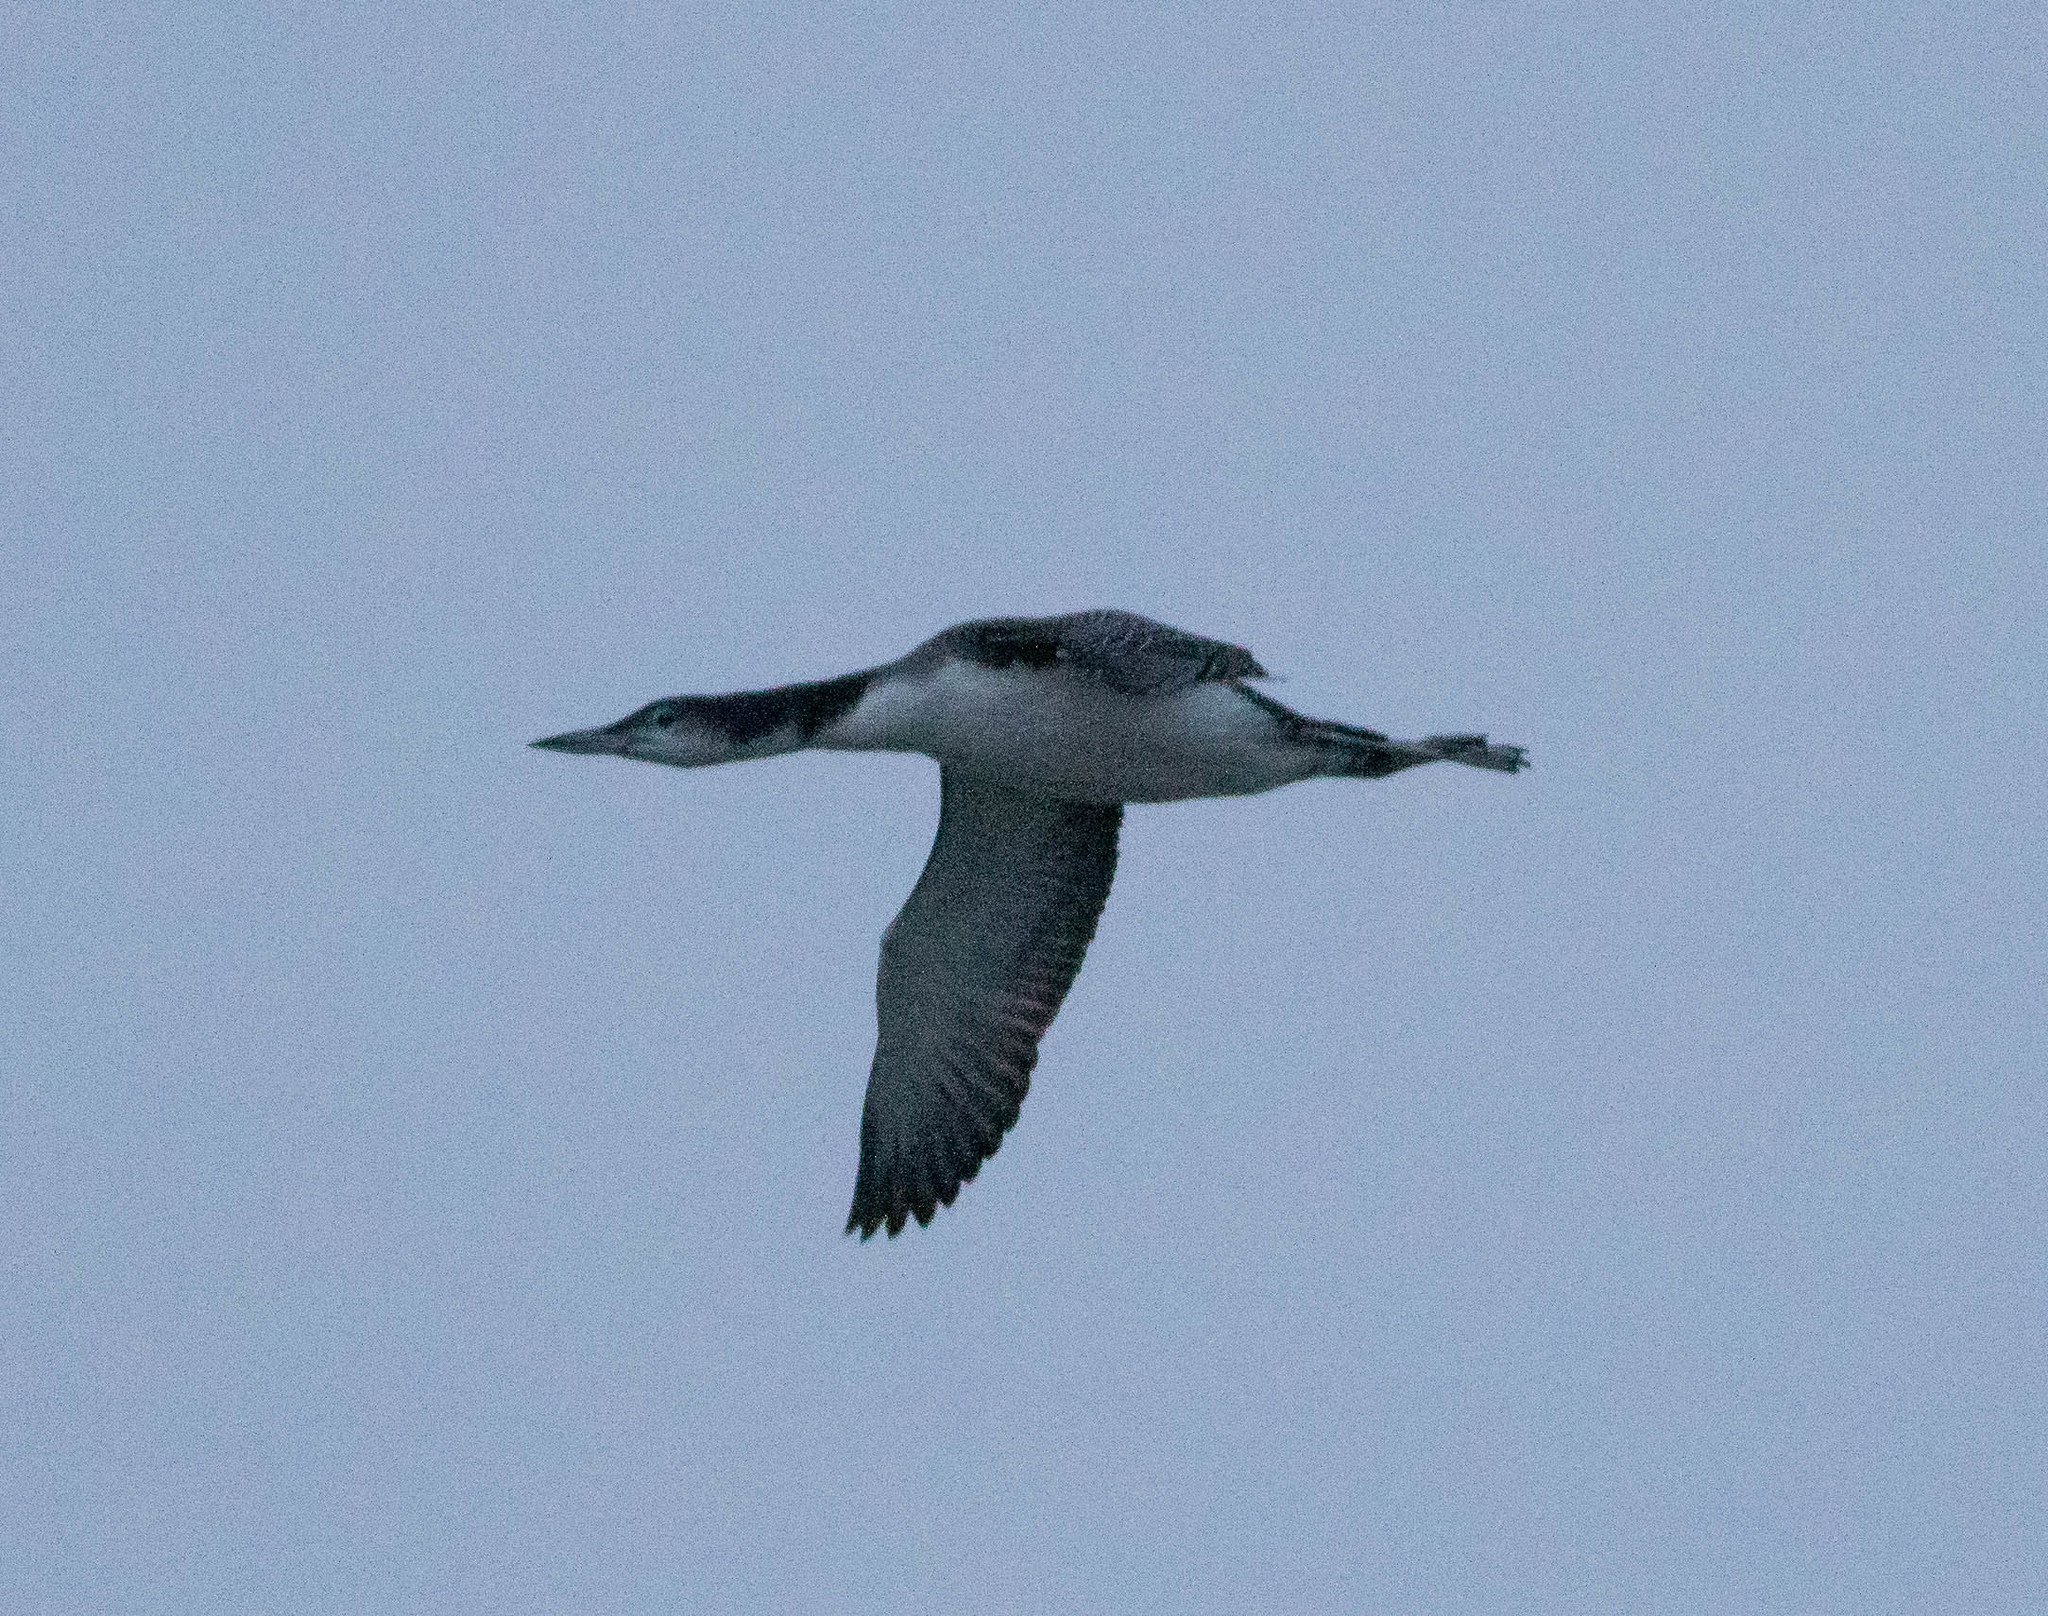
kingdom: Animalia
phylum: Chordata
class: Aves
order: Gaviiformes
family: Gaviidae
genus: Gavia
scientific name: Gavia immer
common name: Common loon
